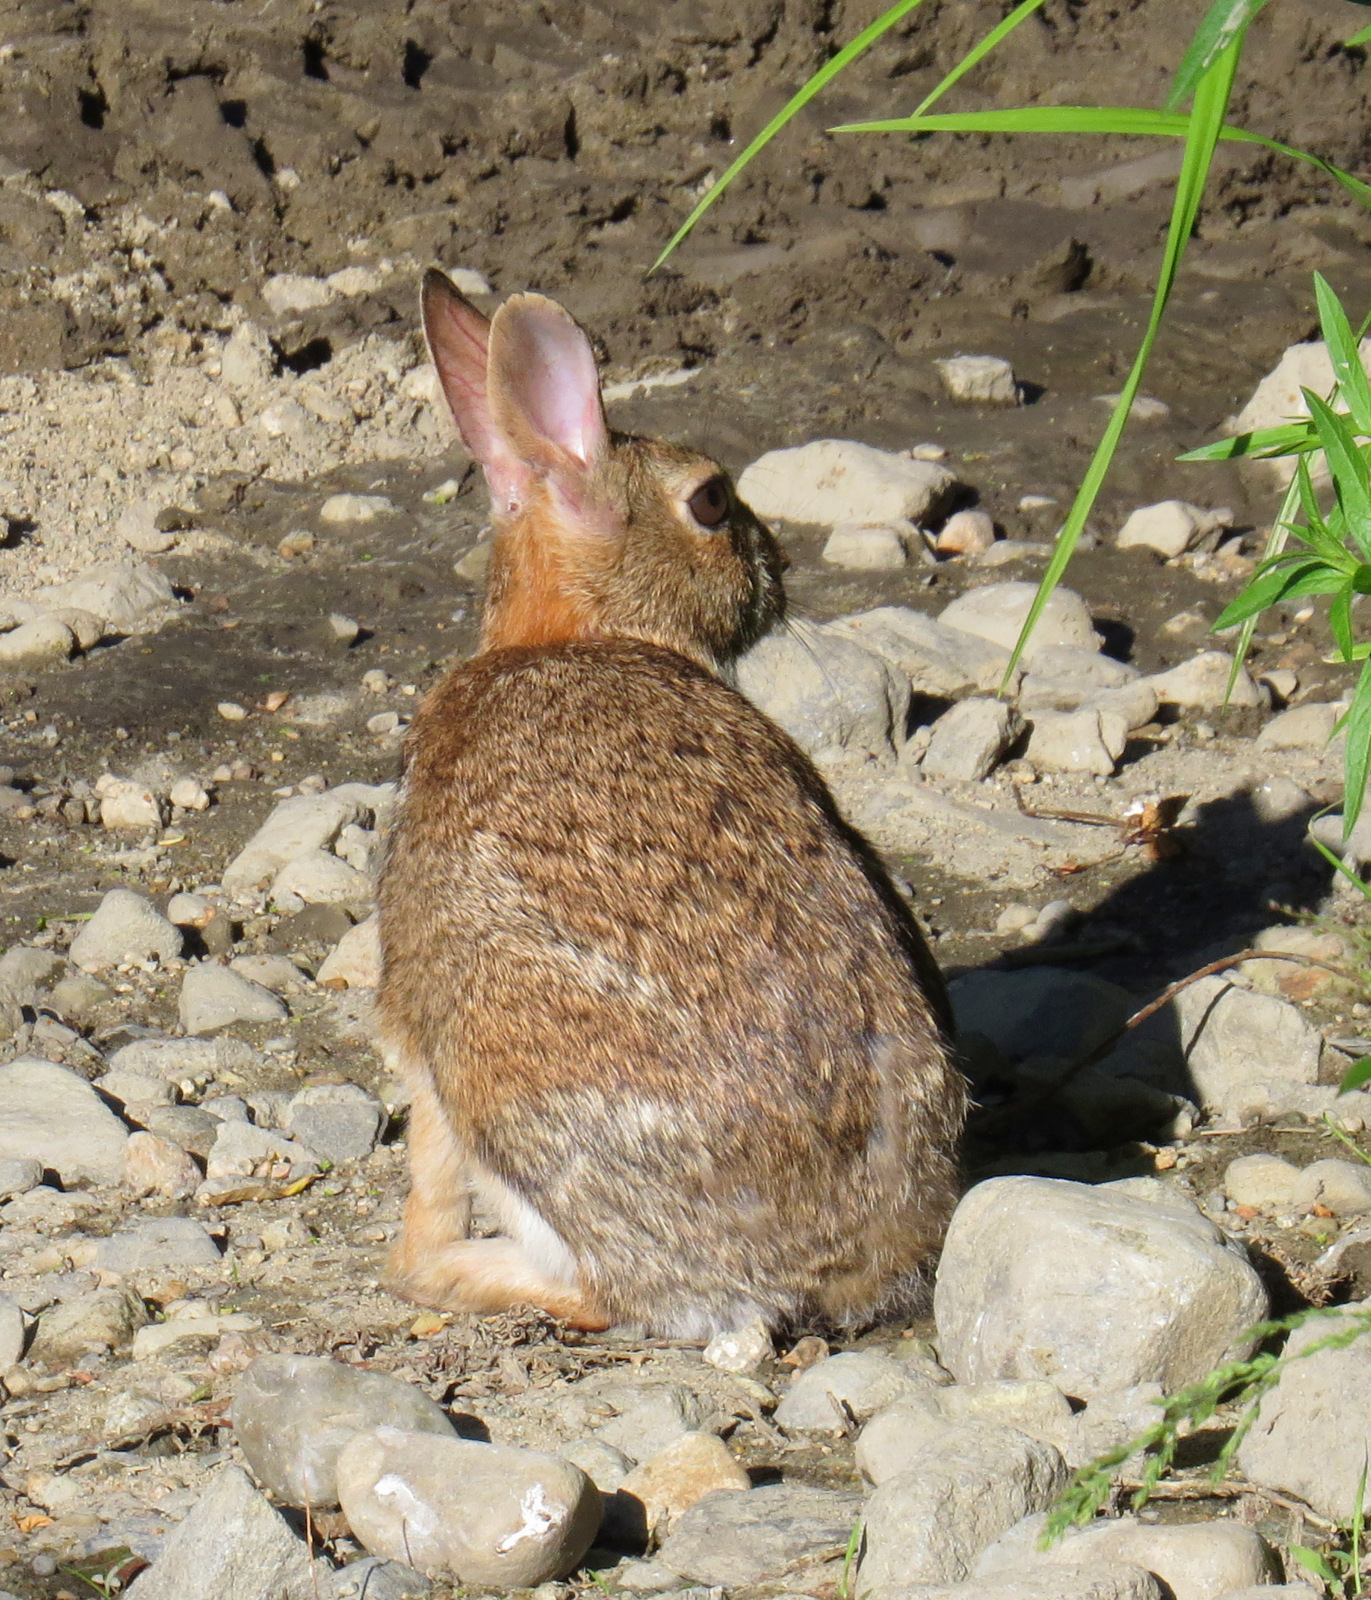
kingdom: Animalia
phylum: Chordata
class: Mammalia
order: Lagomorpha
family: Leporidae
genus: Sylvilagus
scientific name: Sylvilagus floridanus
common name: Eastern cottontail
